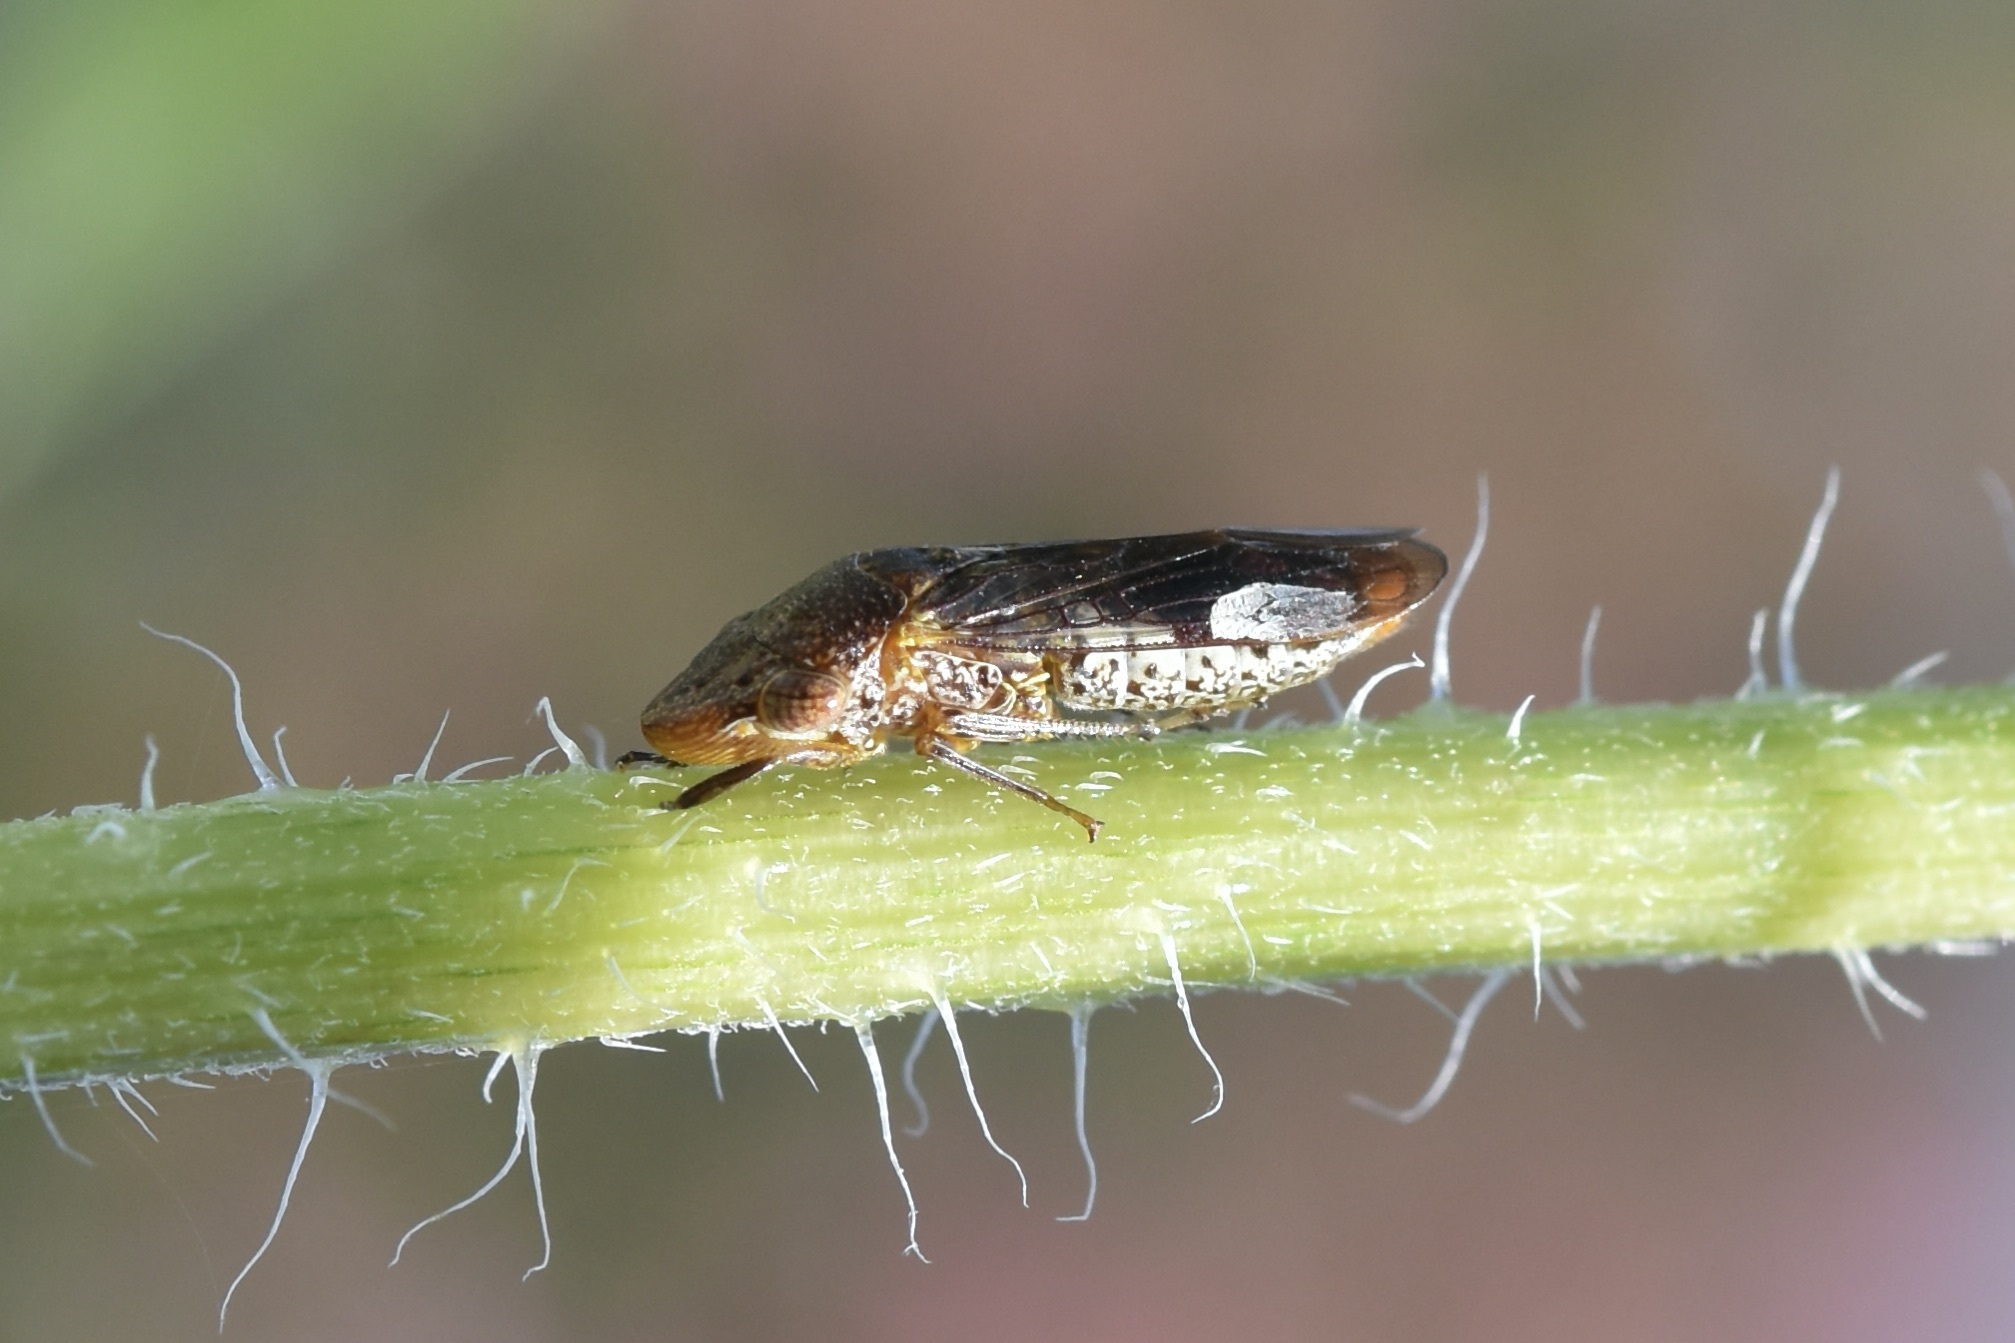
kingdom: Animalia
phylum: Arthropoda
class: Insecta
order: Hemiptera
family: Cicadellidae
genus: Homalodisca
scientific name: Homalodisca vitripennis
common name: Glassy-winged sharpshooter
